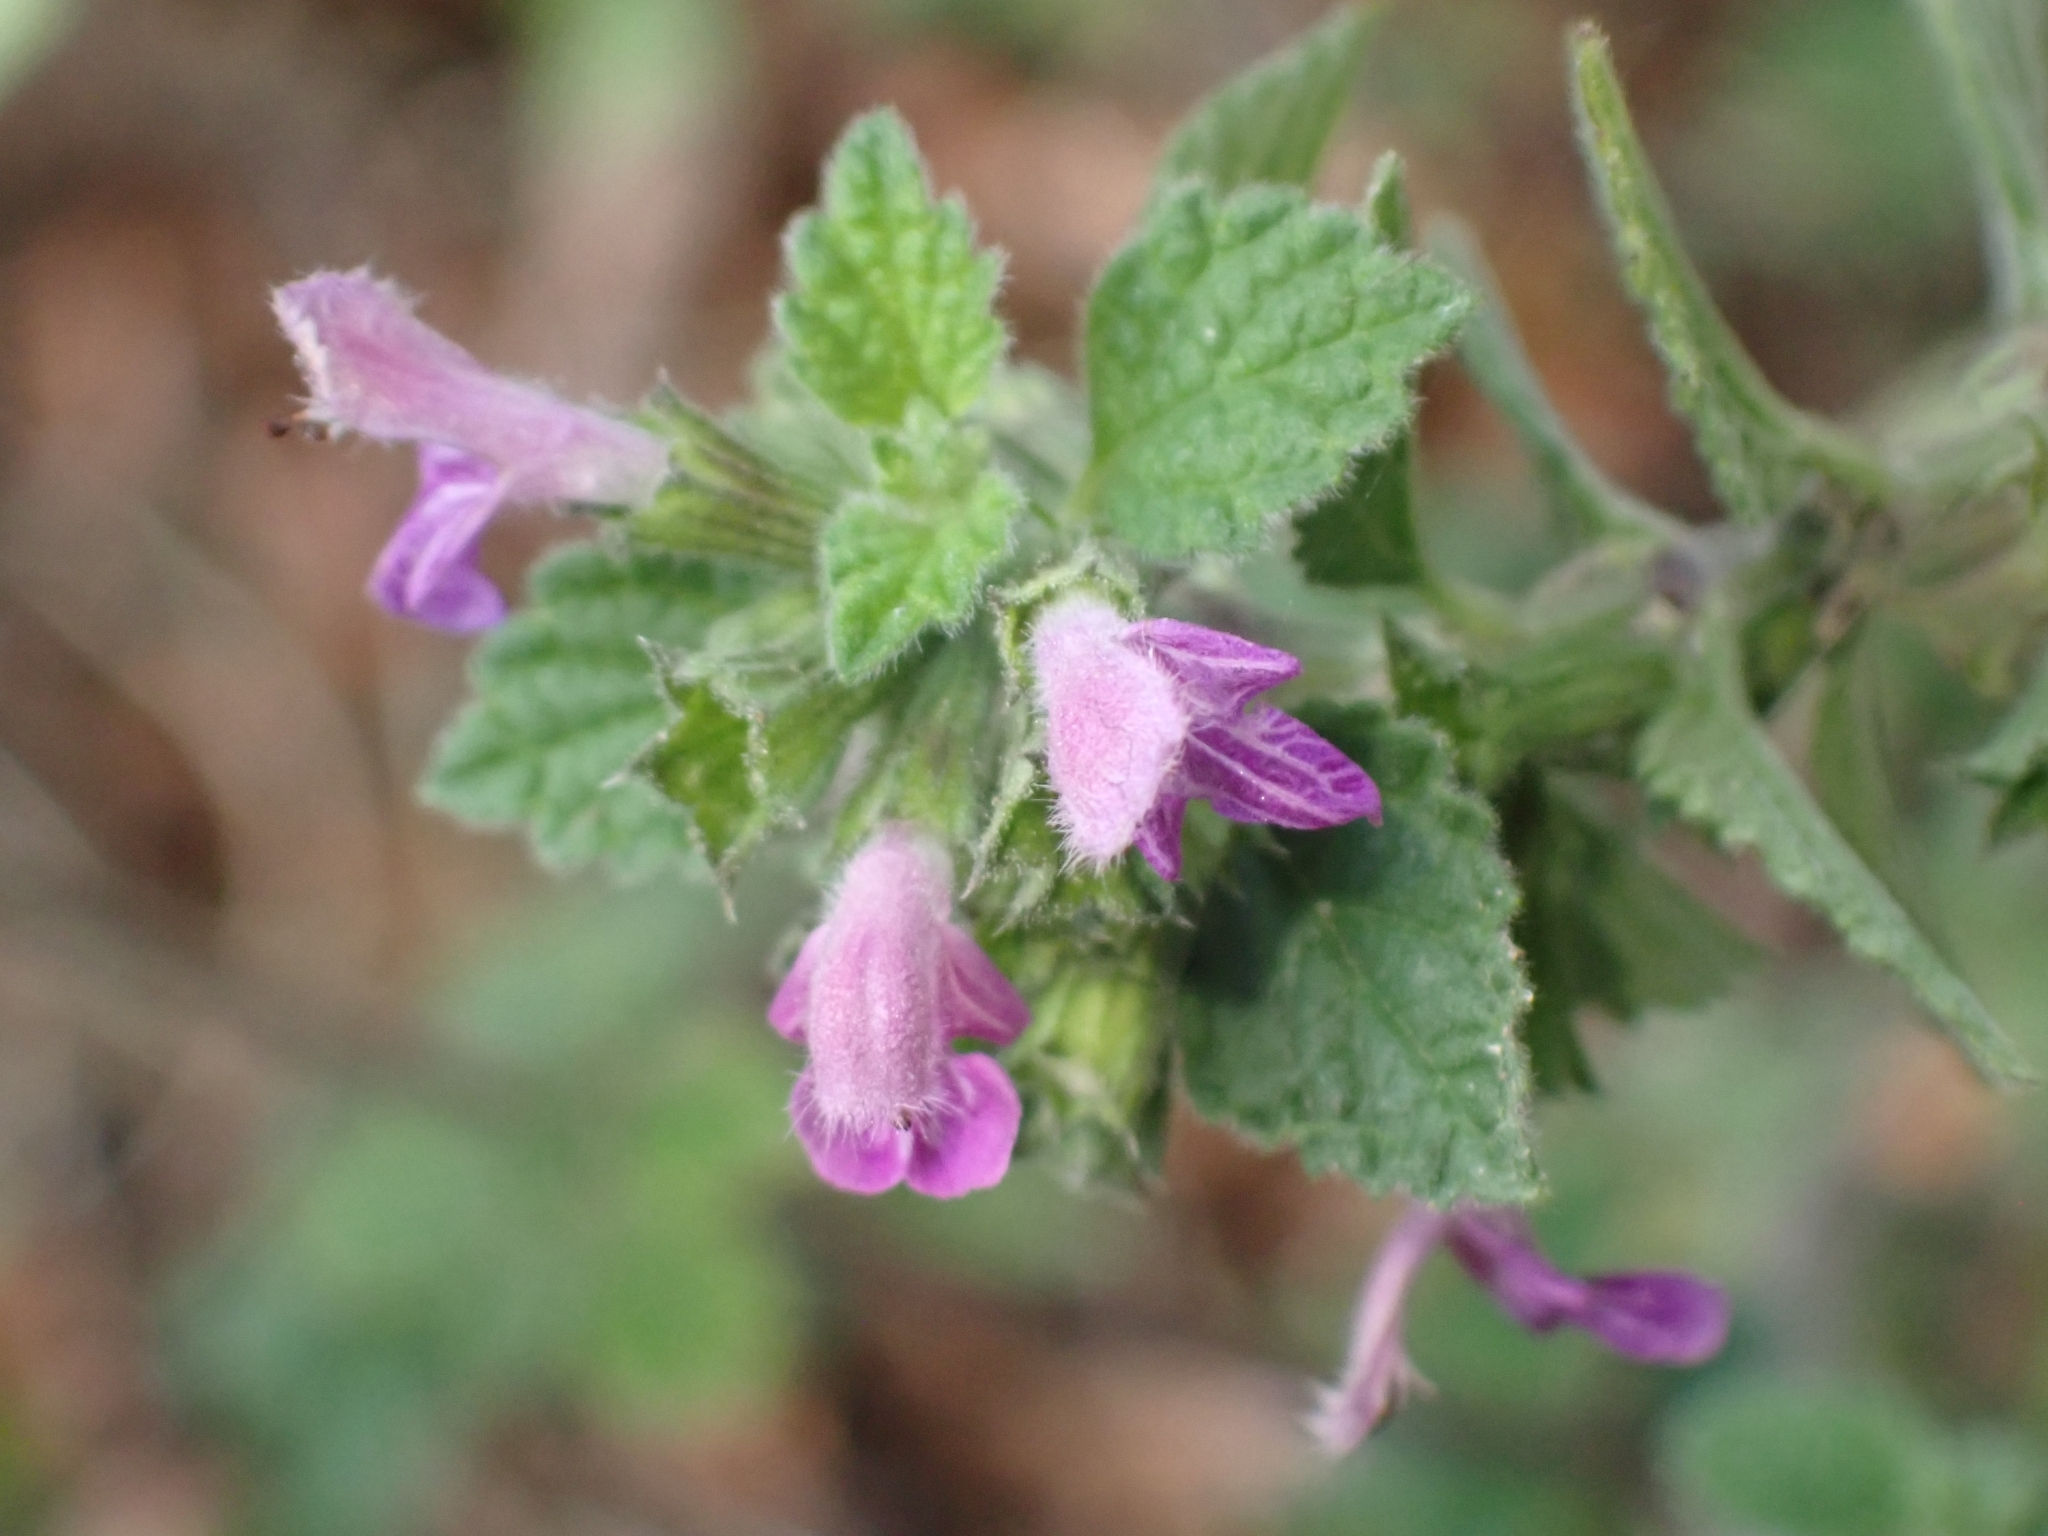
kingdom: Plantae
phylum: Tracheophyta
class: Magnoliopsida
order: Lamiales
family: Lamiaceae
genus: Ballota
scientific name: Ballota nigra
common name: Black horehound
